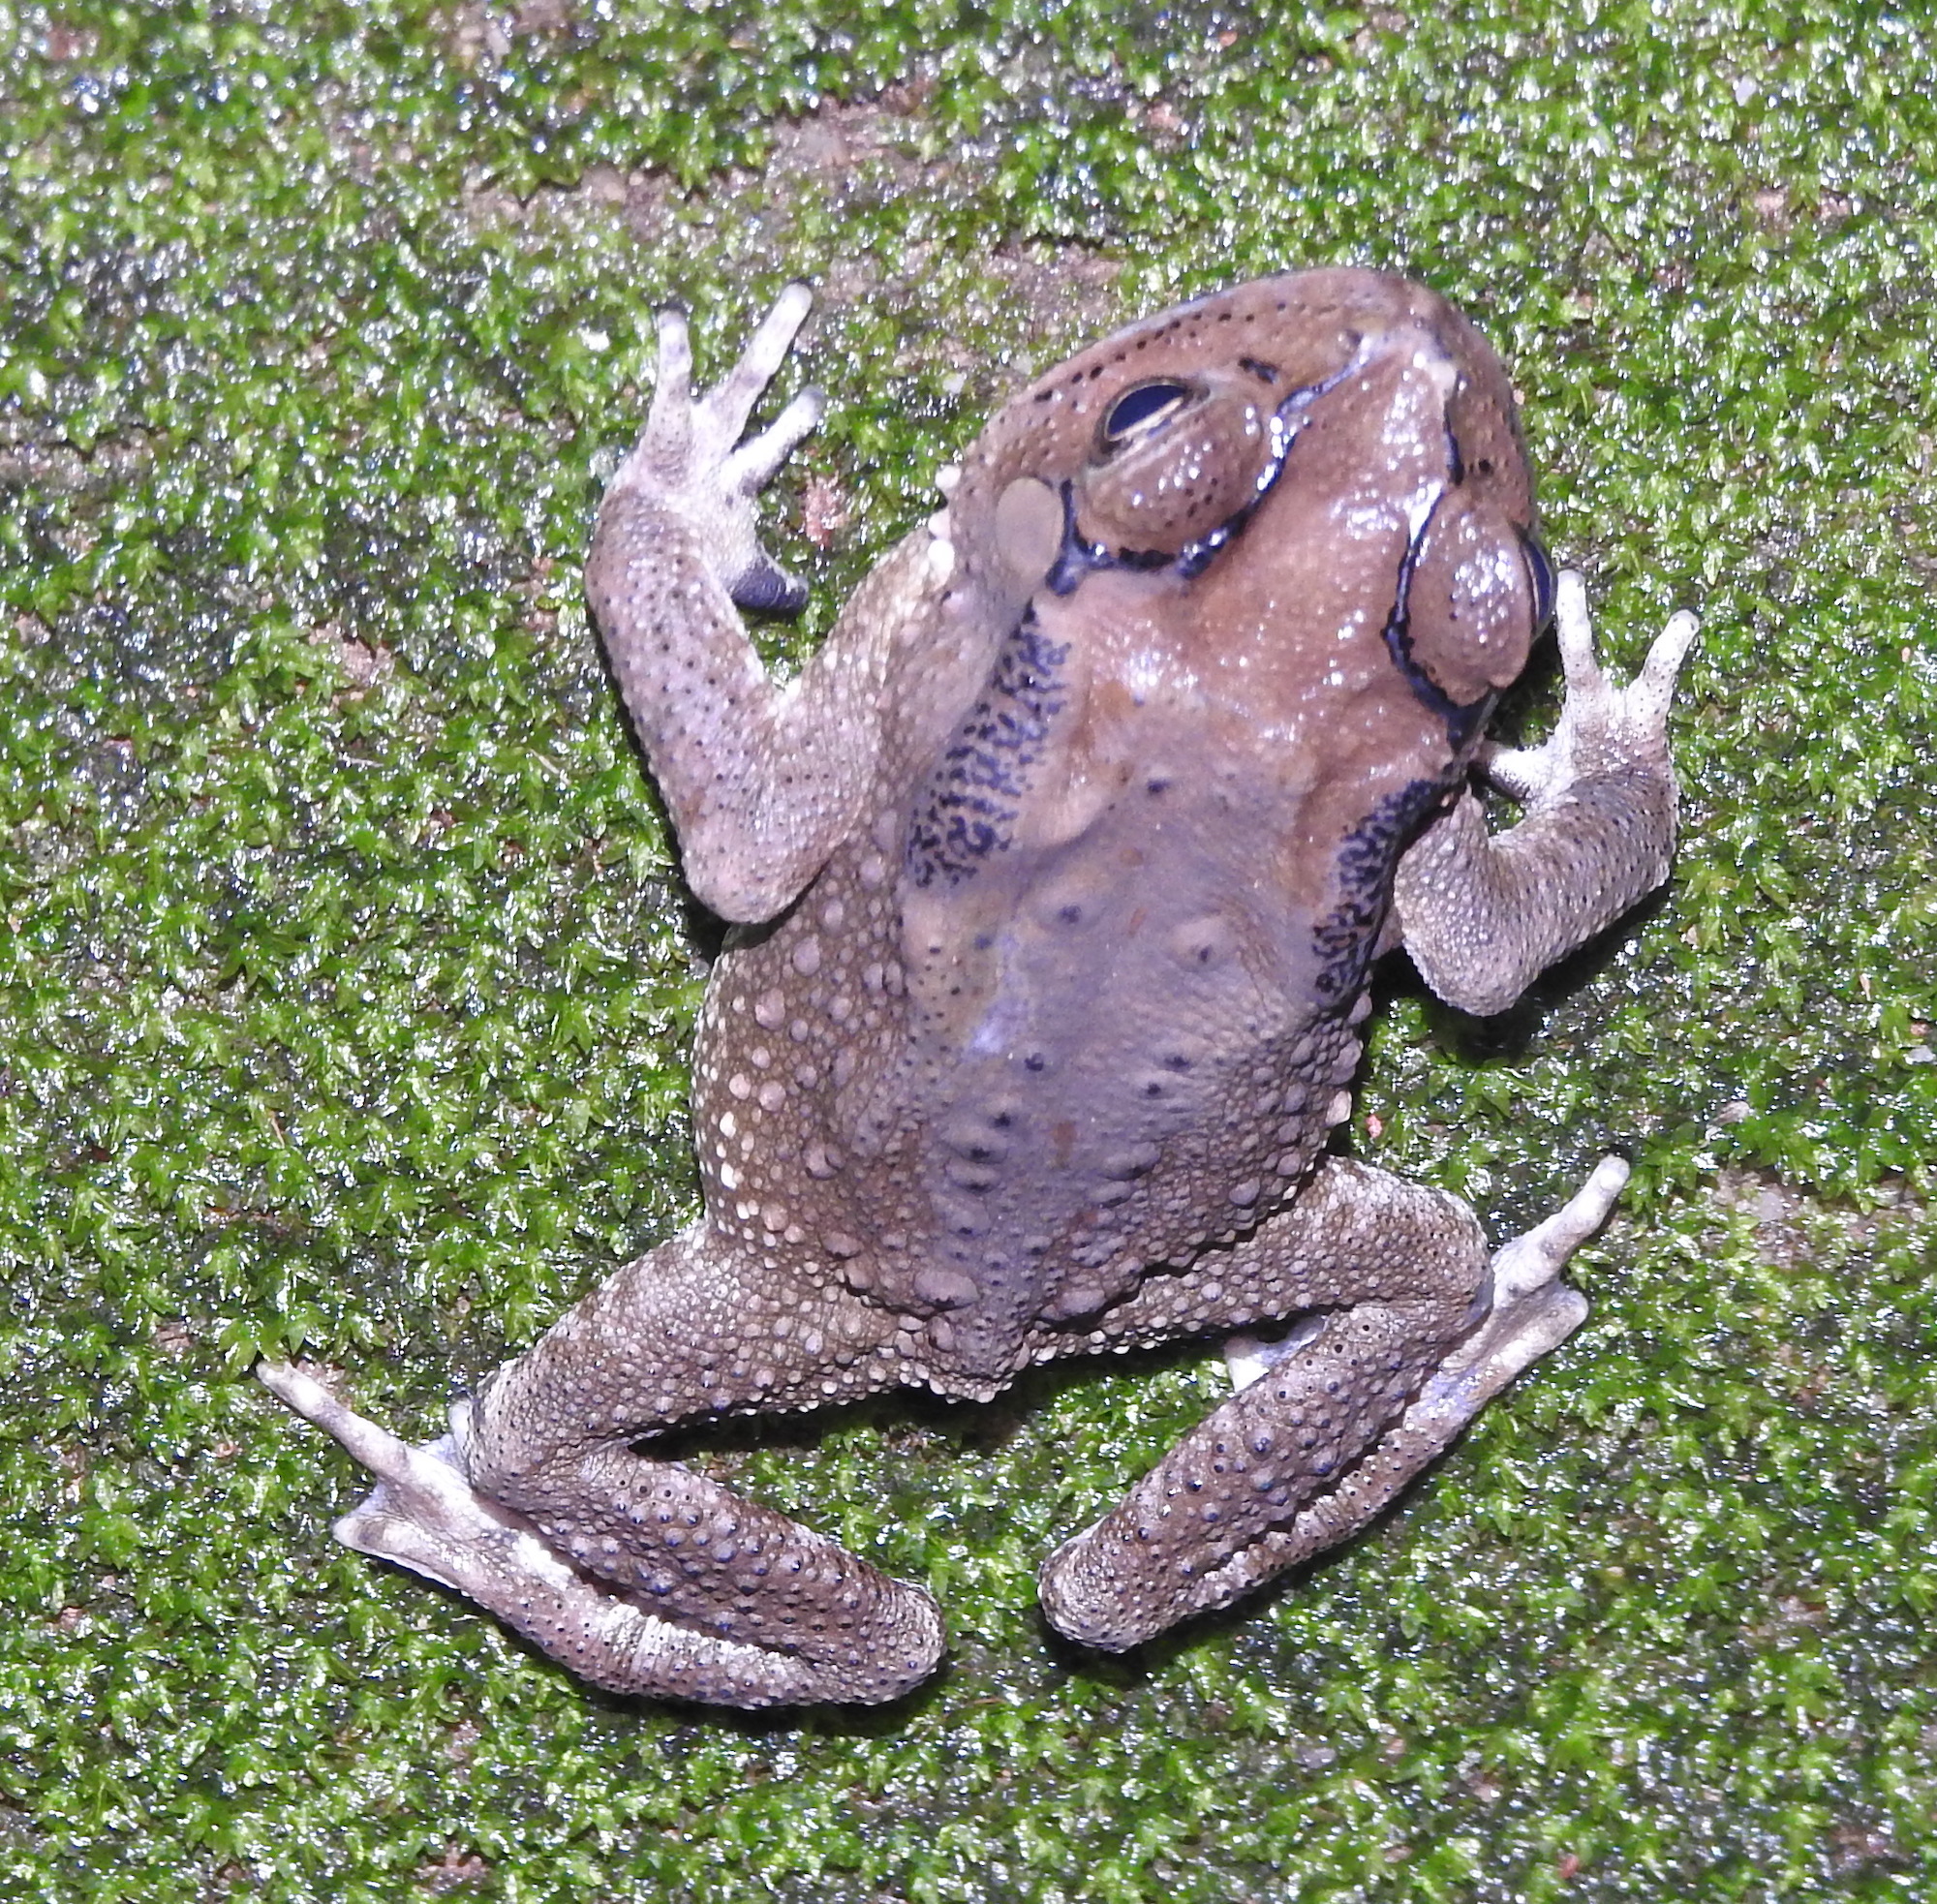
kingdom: Animalia
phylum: Chordata
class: Amphibia
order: Anura
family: Bufonidae
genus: Duttaphrynus
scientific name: Duttaphrynus melanostictus
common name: Common sunda toad
